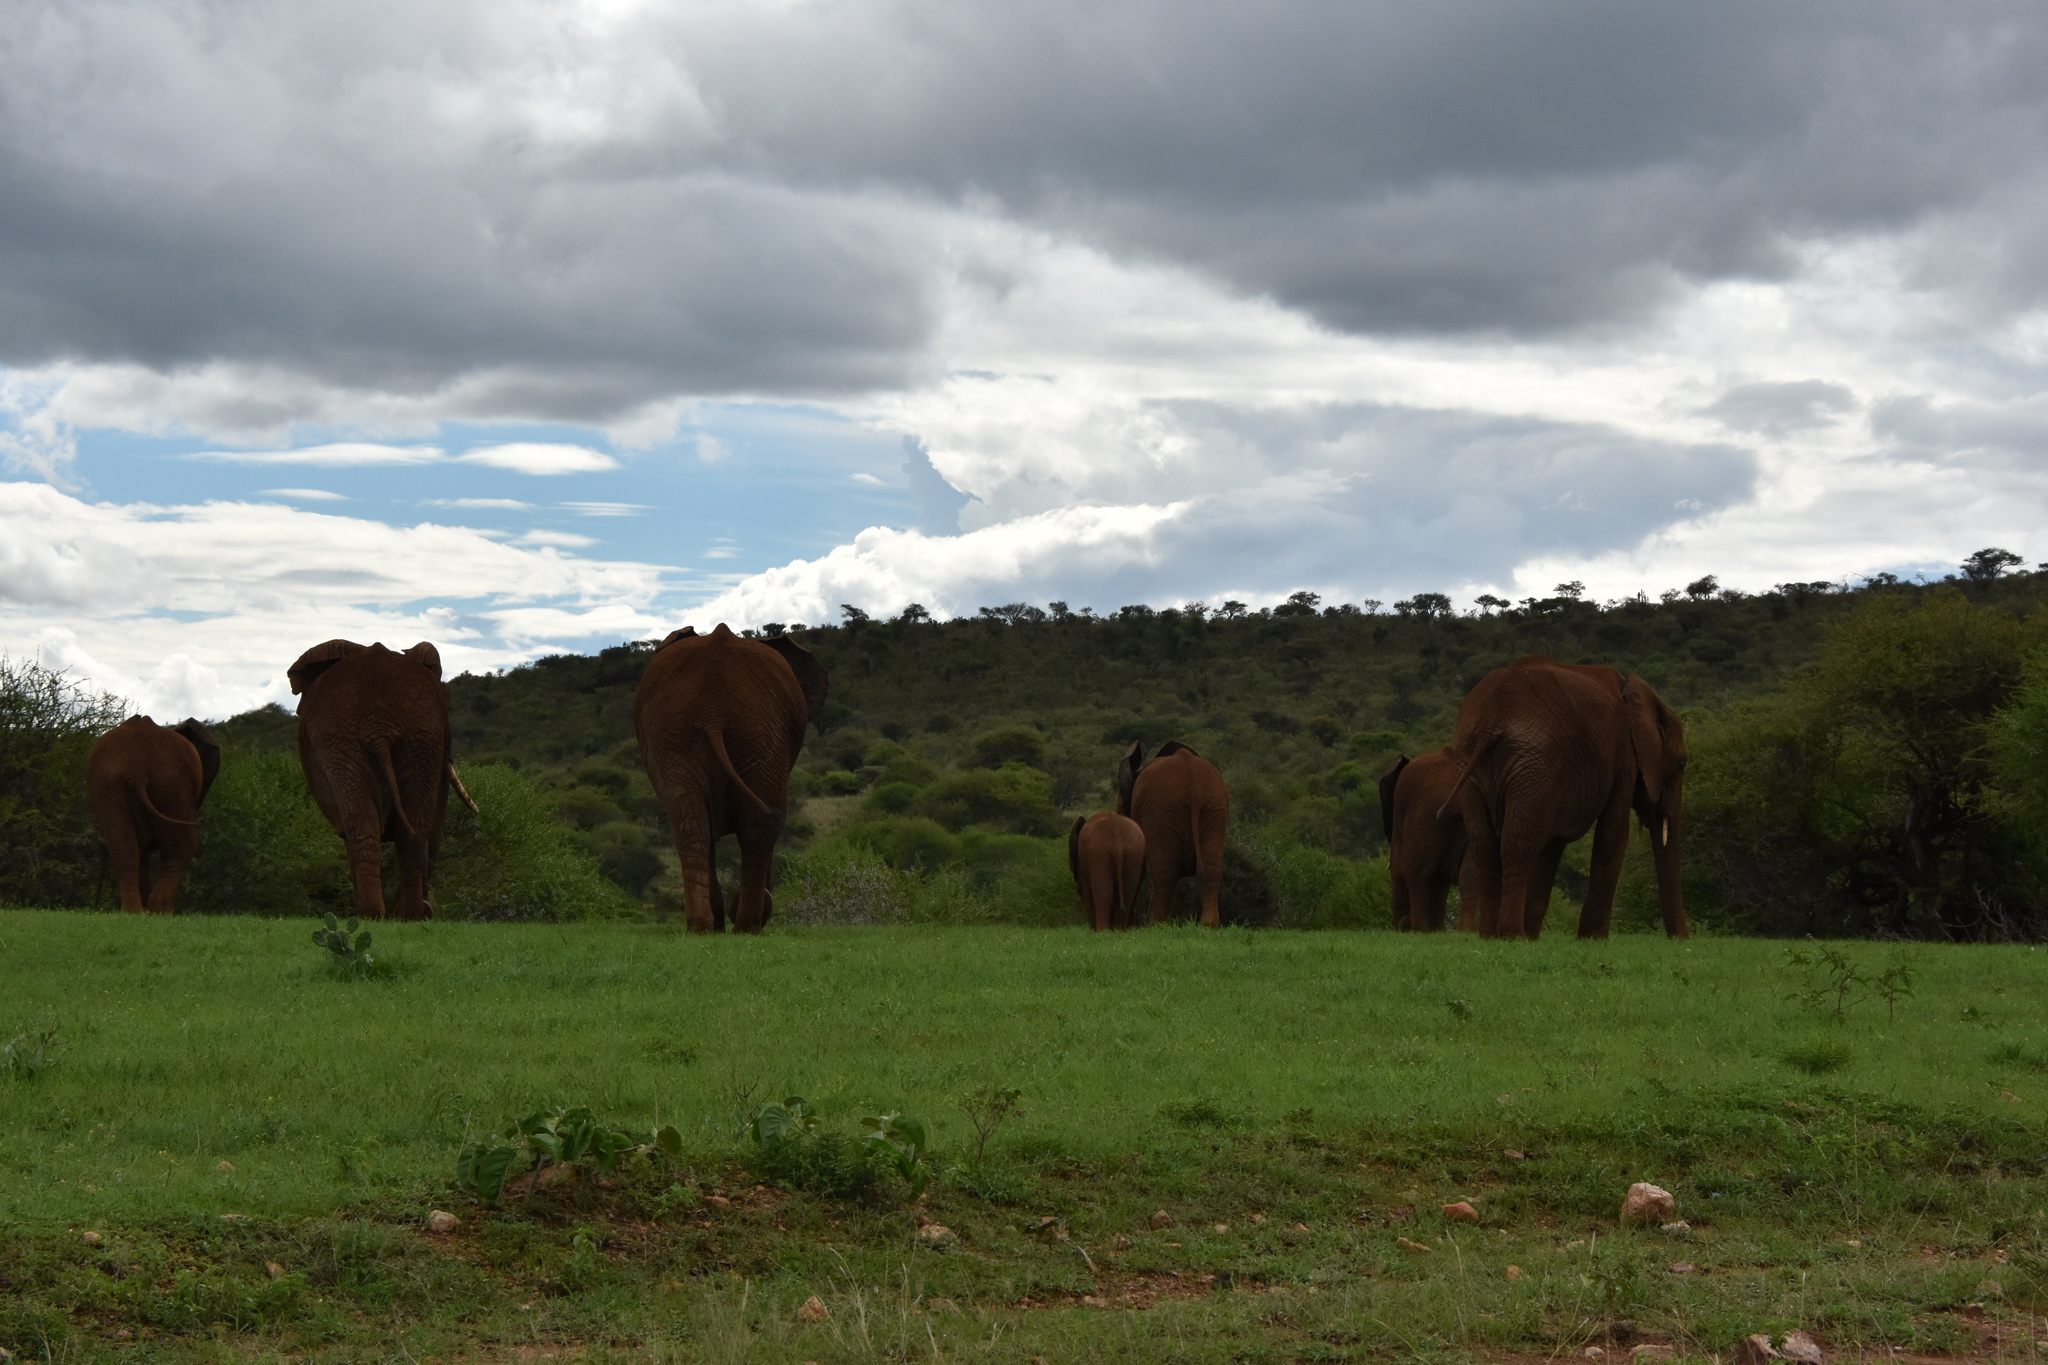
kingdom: Animalia
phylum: Chordata
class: Mammalia
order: Proboscidea
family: Elephantidae
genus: Loxodonta
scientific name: Loxodonta africana
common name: African elephant
